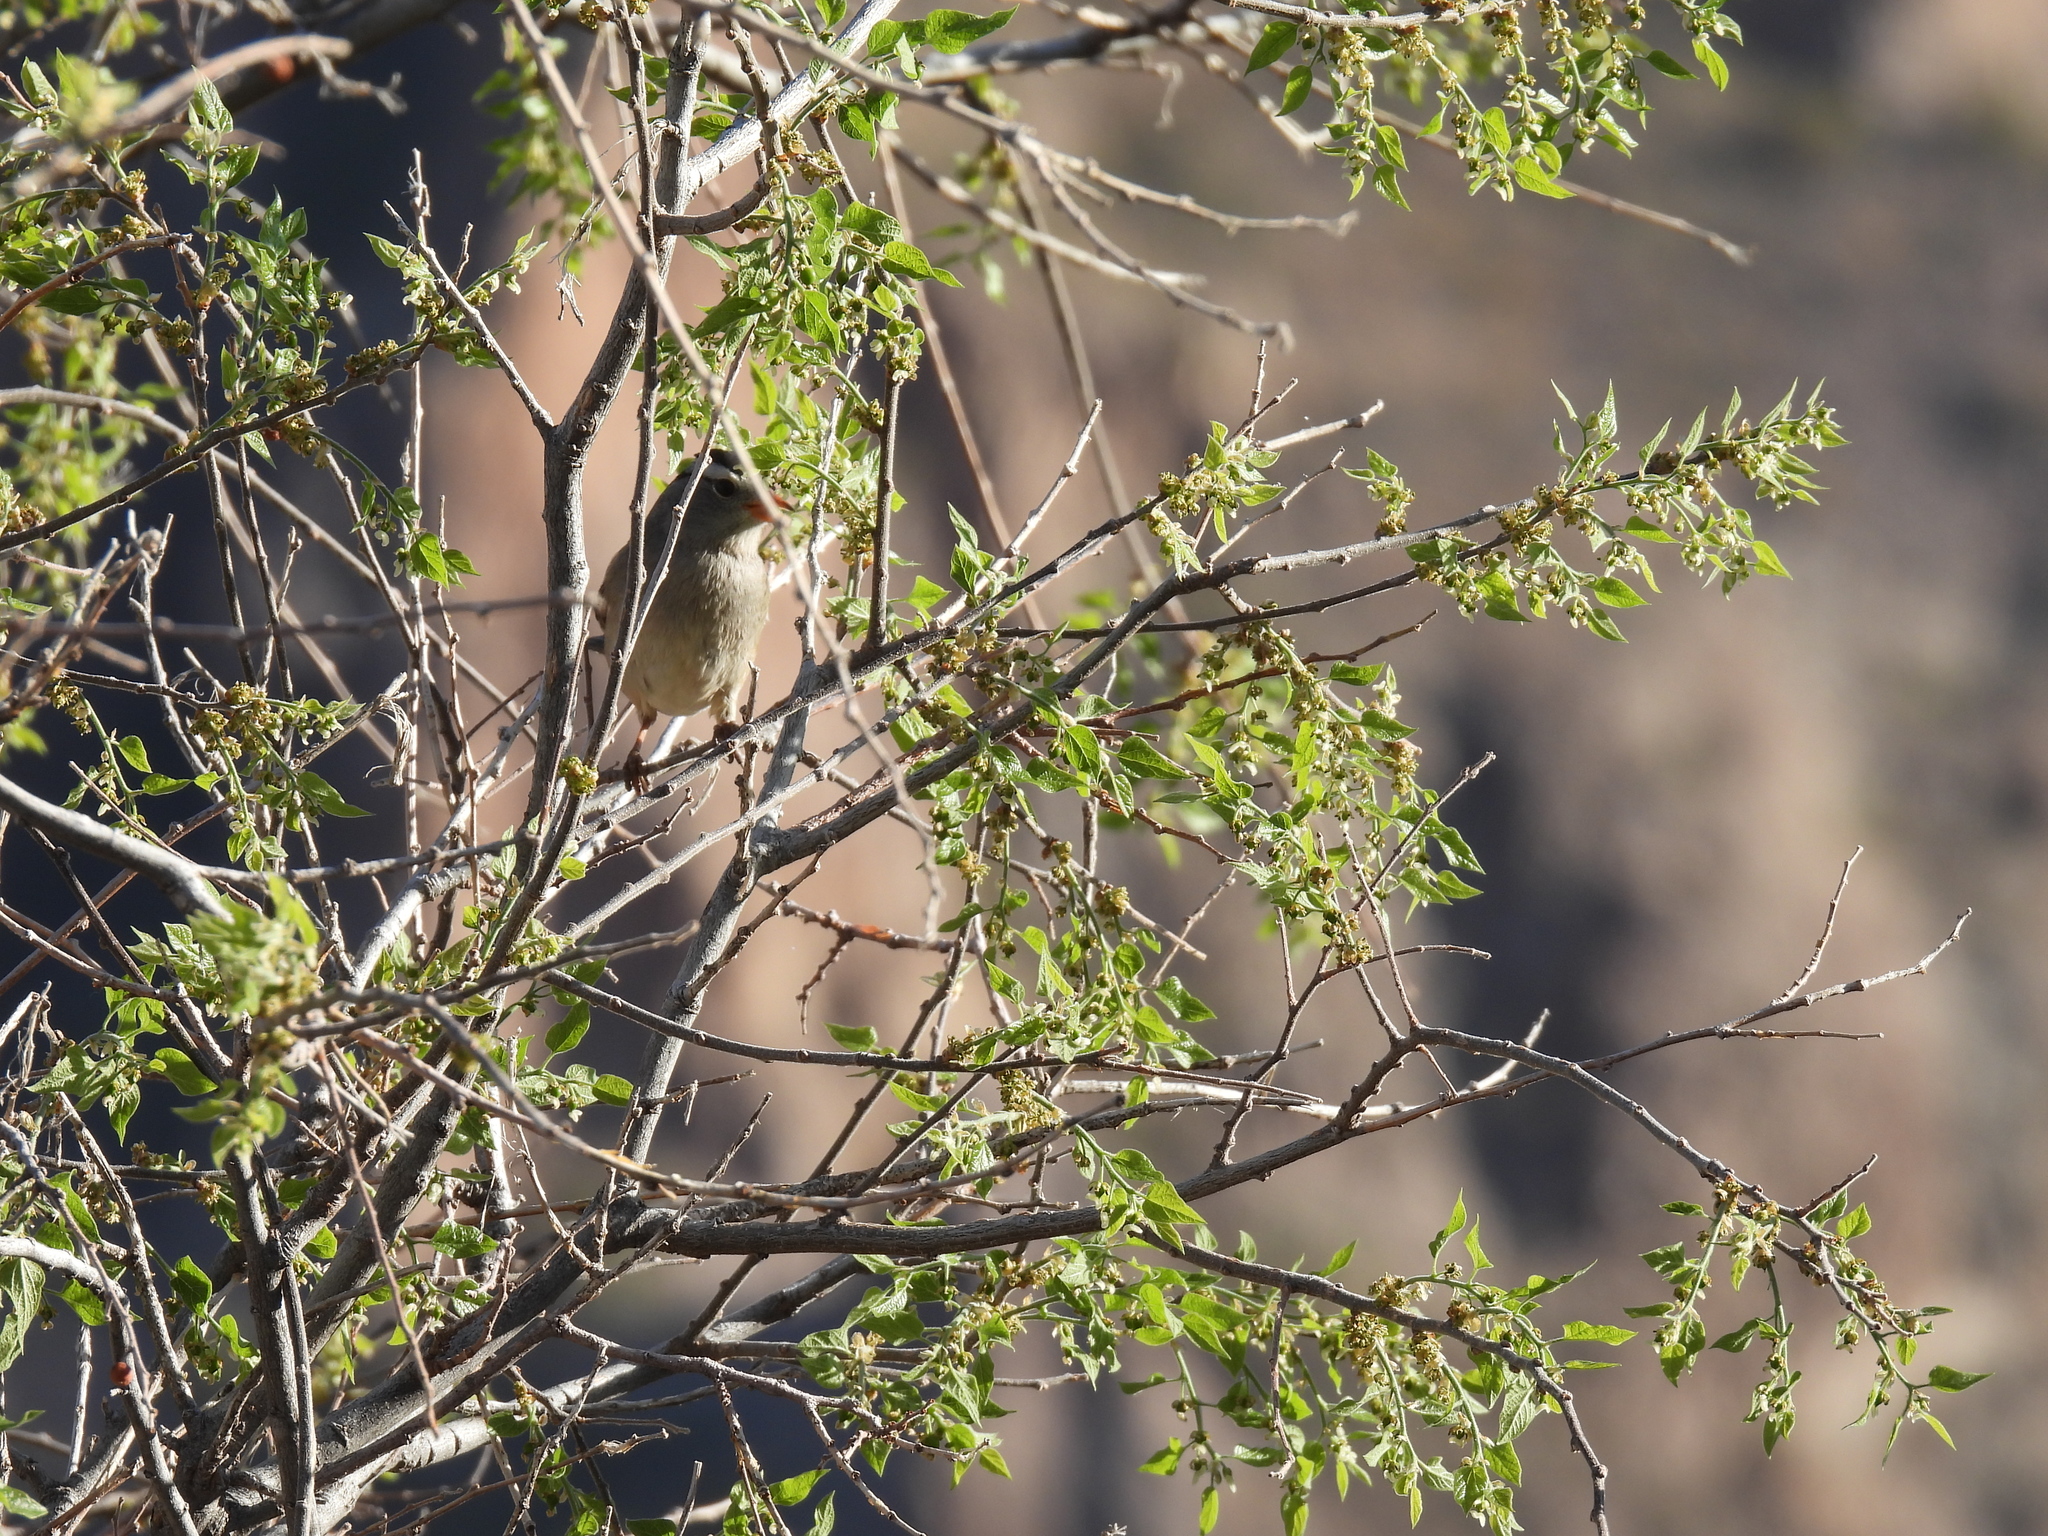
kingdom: Animalia
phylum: Chordata
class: Aves
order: Passeriformes
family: Passerellidae
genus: Zonotrichia
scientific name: Zonotrichia leucophrys
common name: White-crowned sparrow
